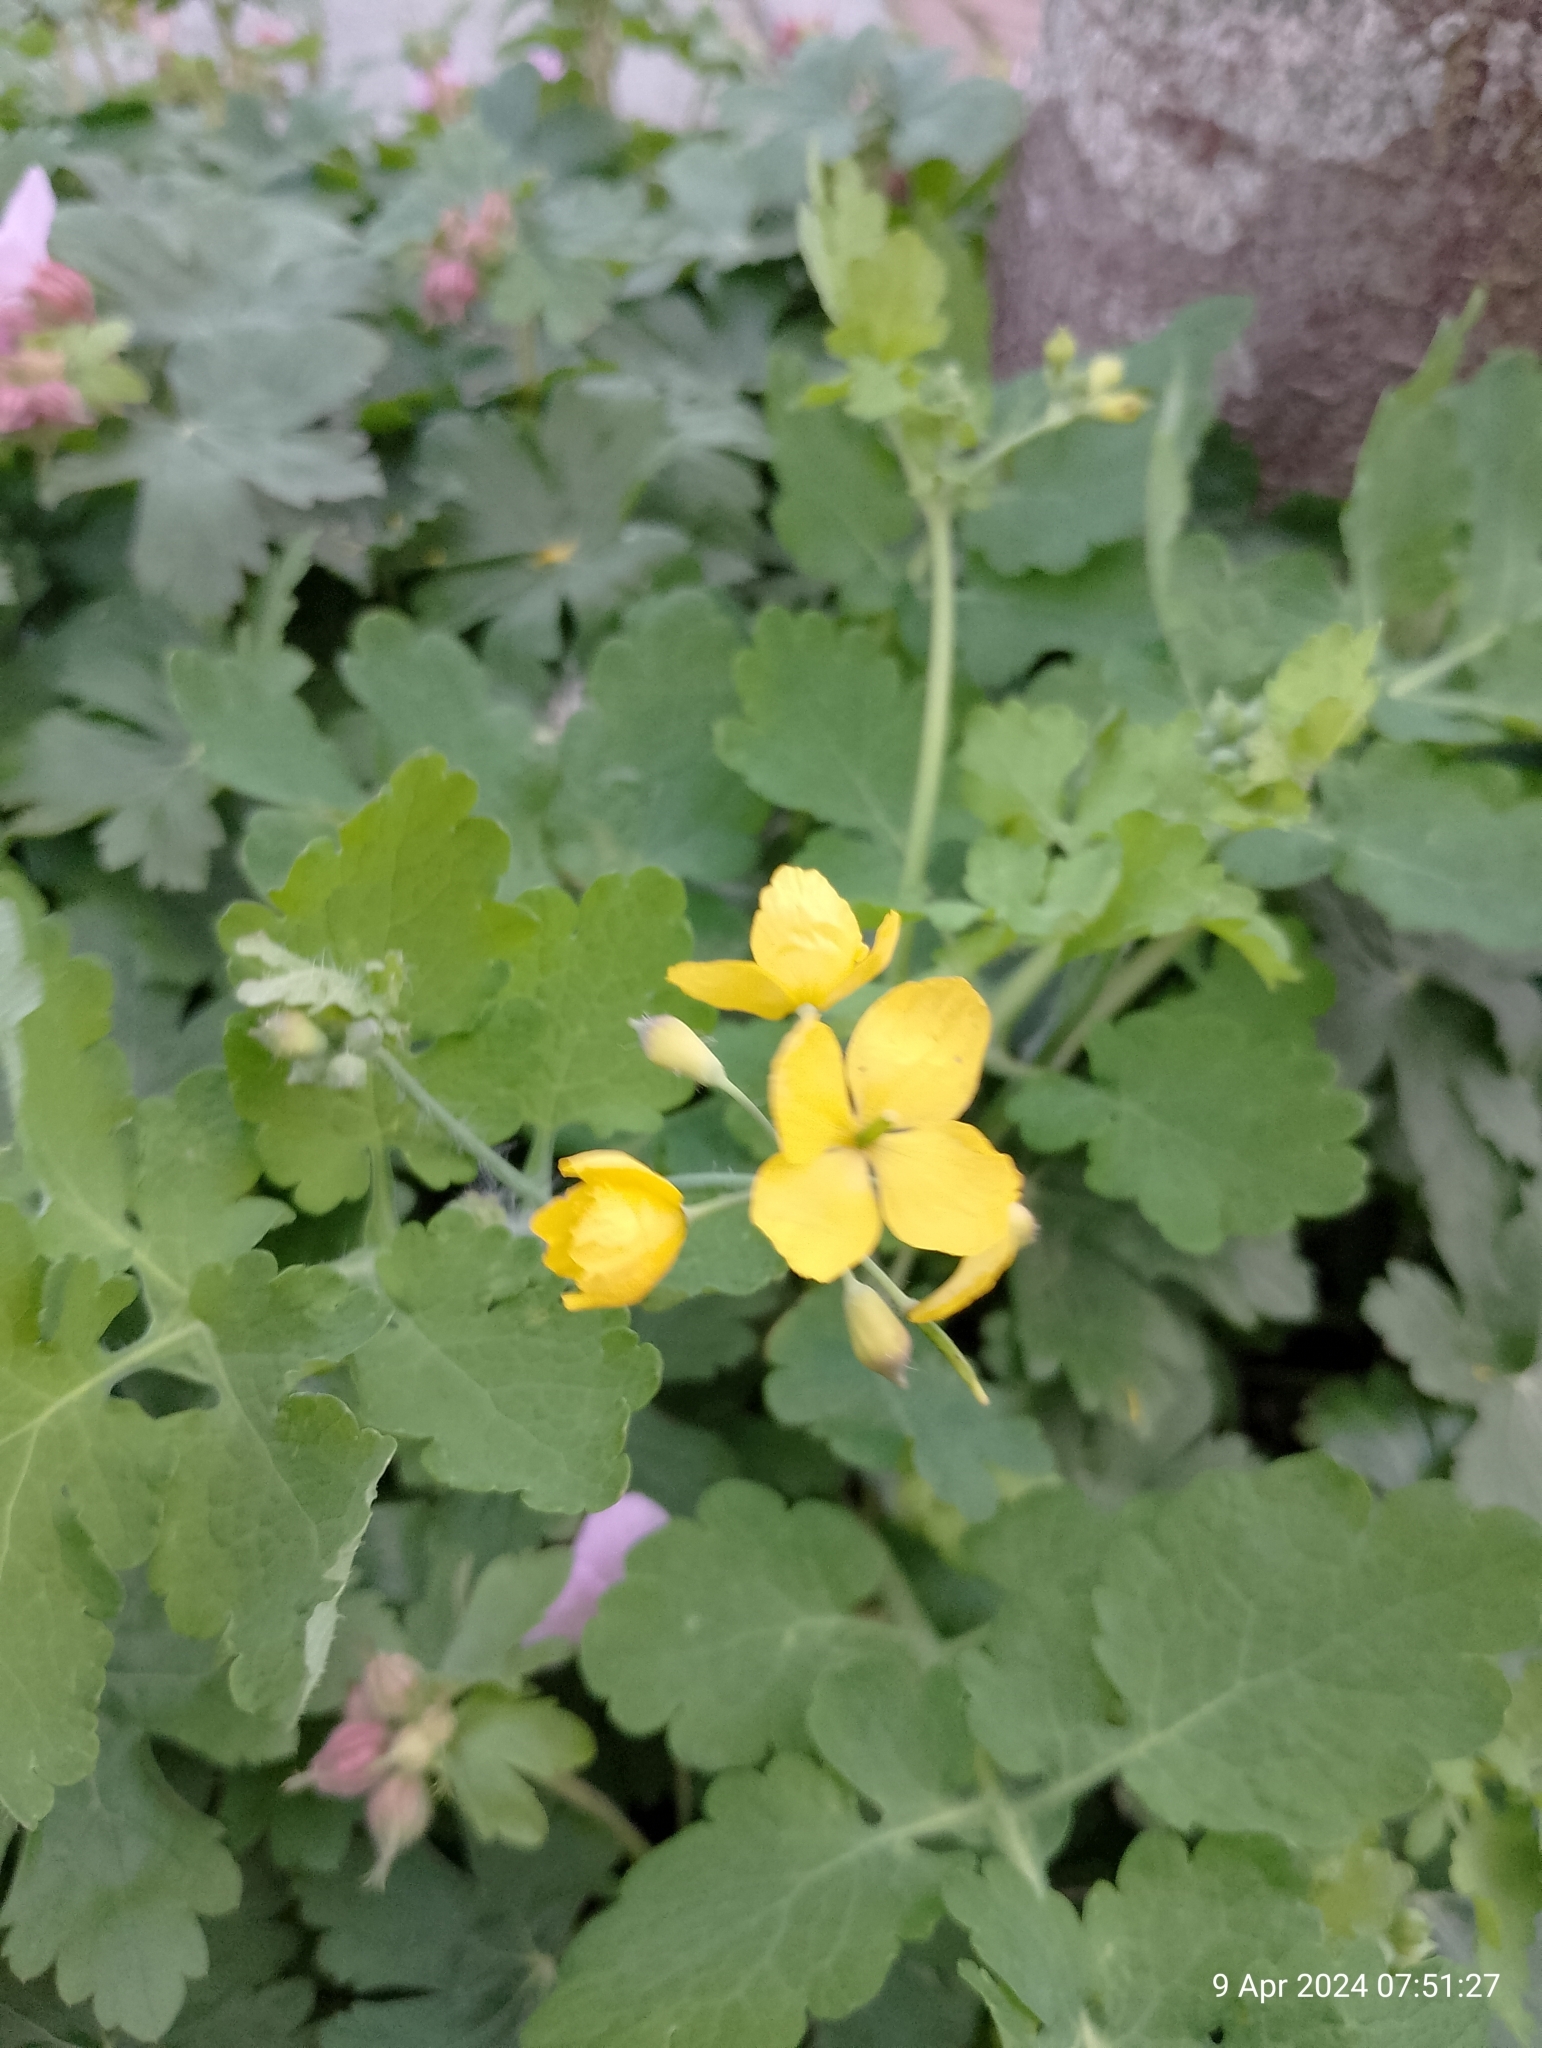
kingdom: Plantae
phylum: Tracheophyta
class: Magnoliopsida
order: Ranunculales
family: Papaveraceae
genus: Chelidonium
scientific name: Chelidonium majus
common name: Greater celandine
